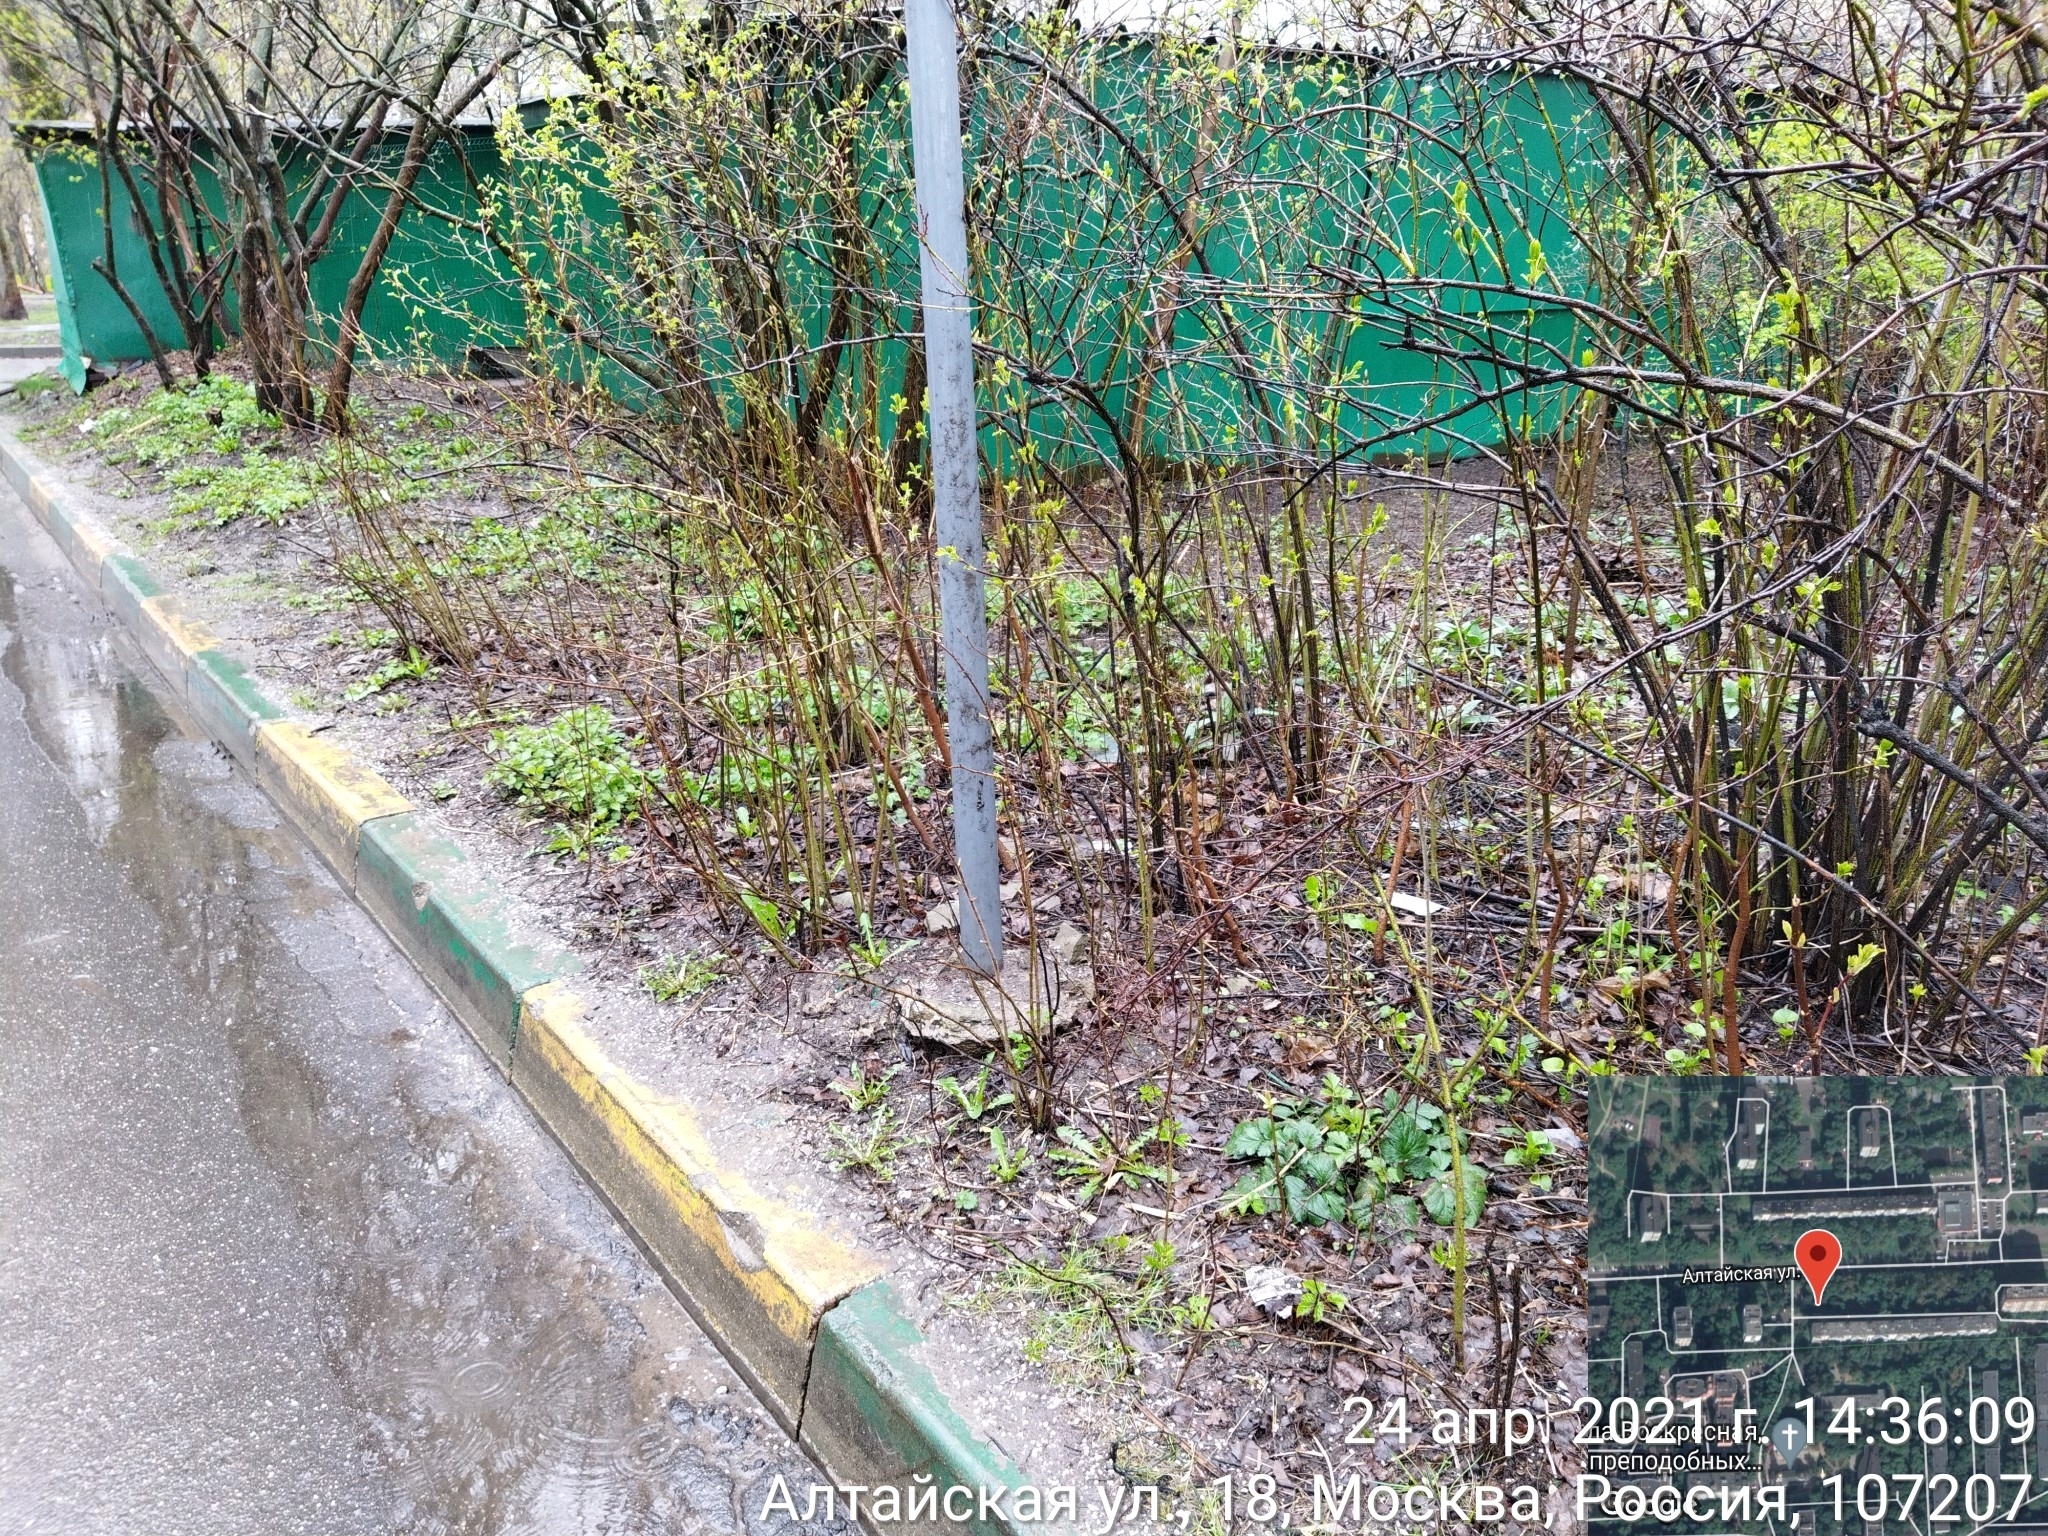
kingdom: Plantae
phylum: Tracheophyta
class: Magnoliopsida
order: Malpighiales
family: Violaceae
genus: Viola
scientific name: Viola odorata
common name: Sweet violet
